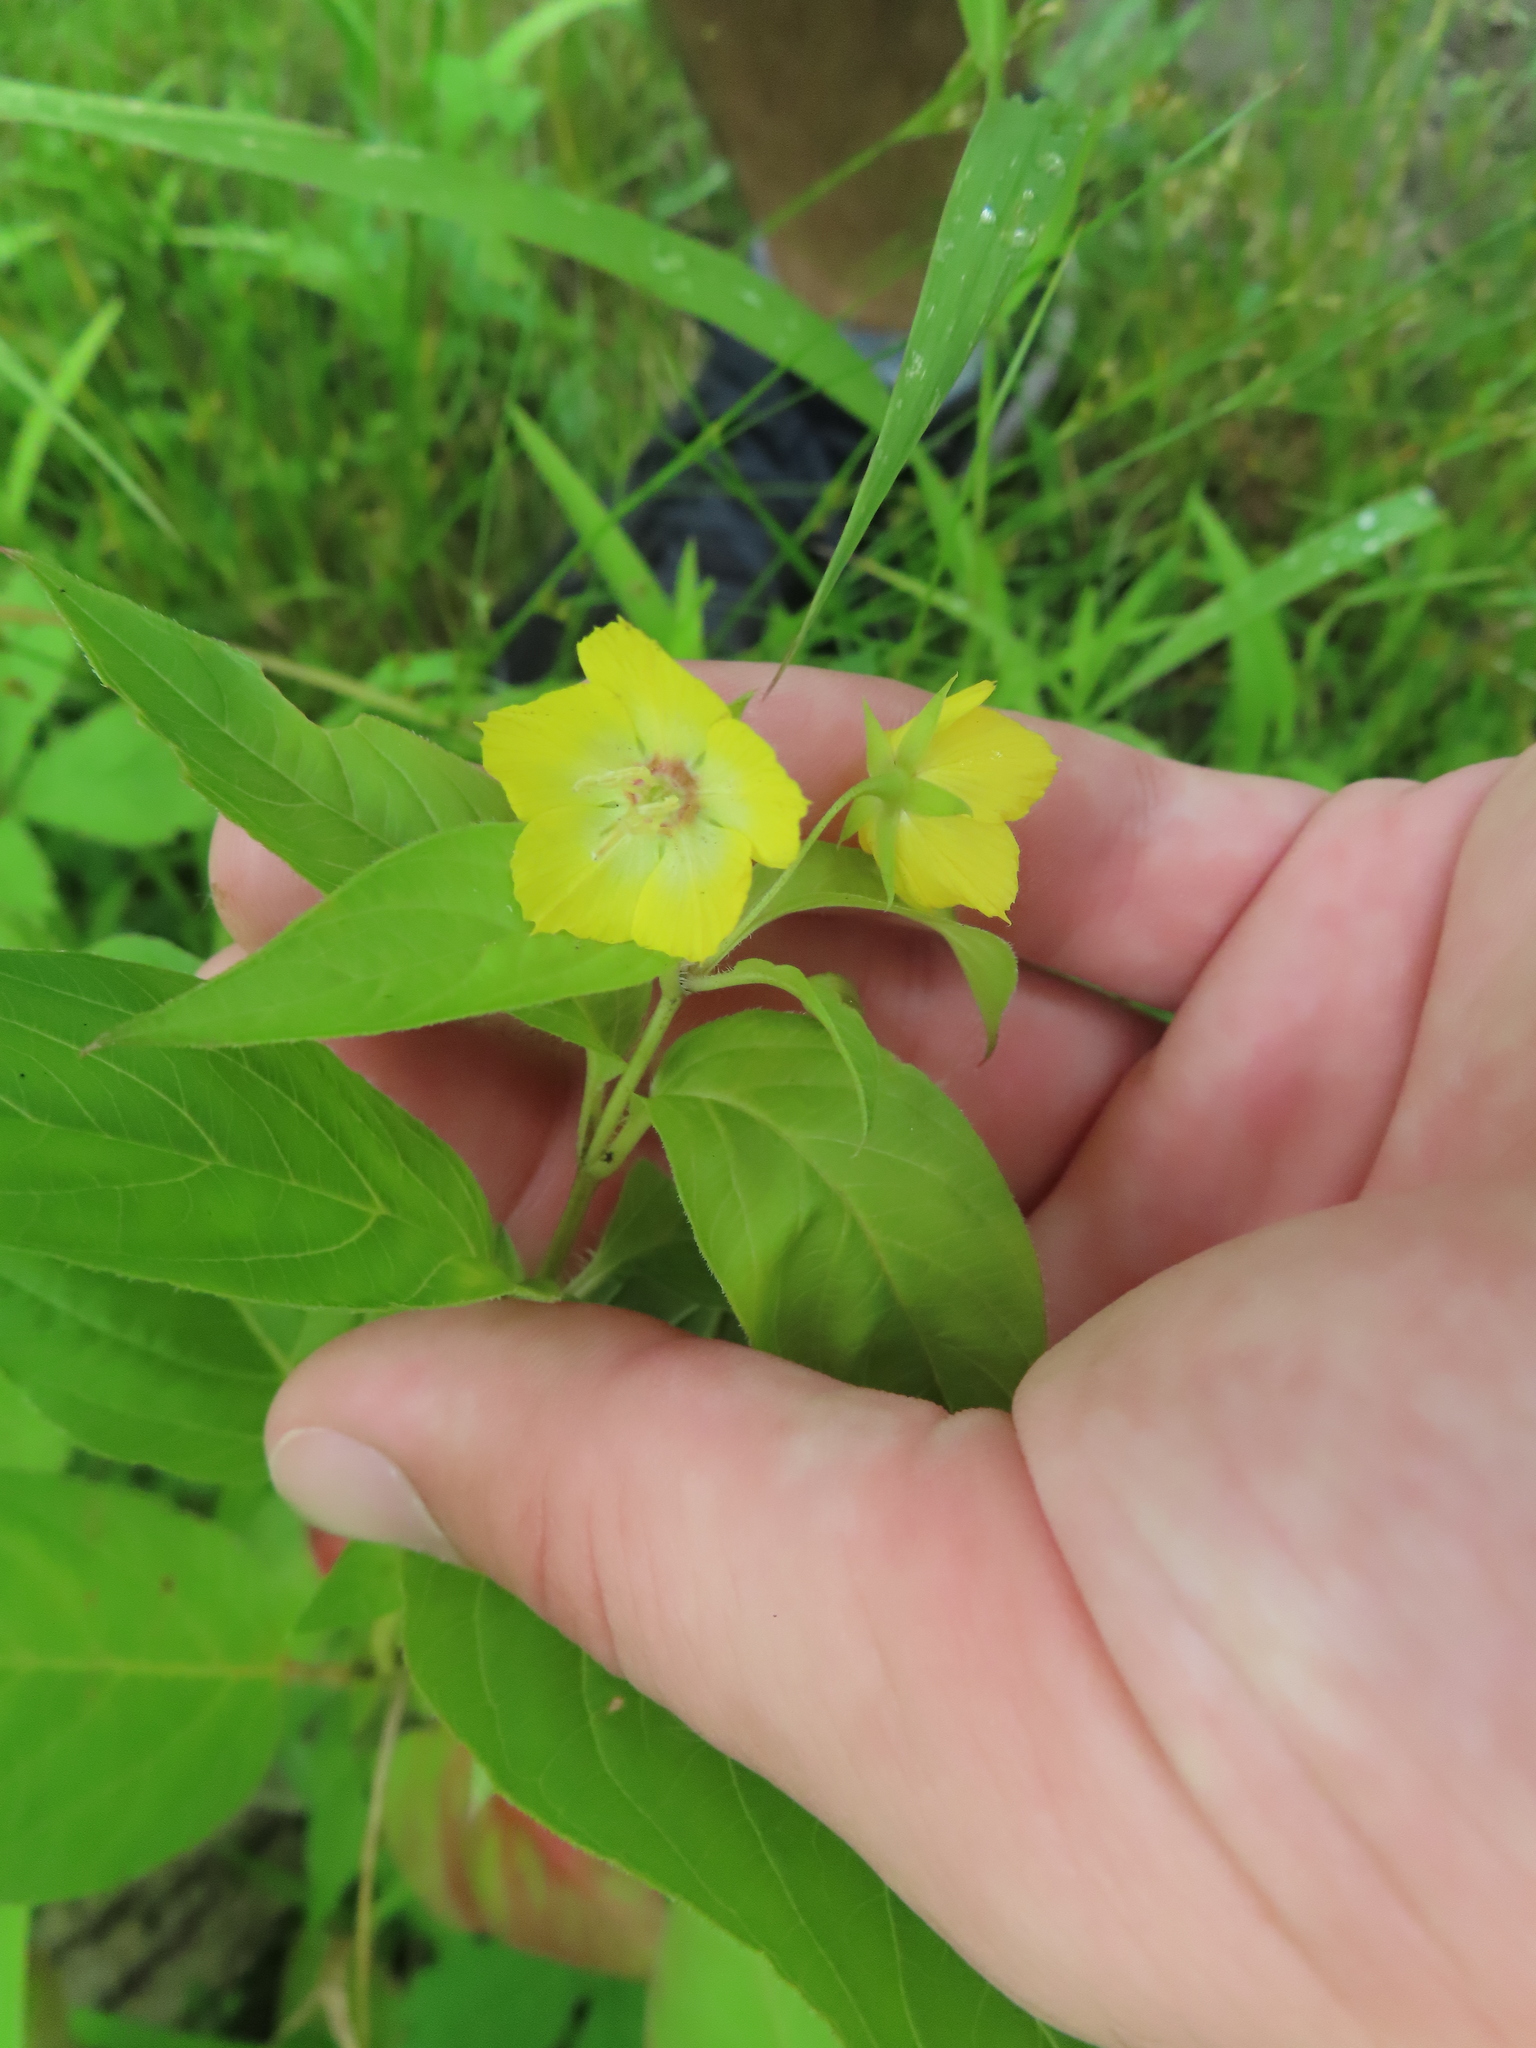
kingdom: Plantae
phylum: Tracheophyta
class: Magnoliopsida
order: Ericales
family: Primulaceae
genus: Lysimachia
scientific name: Lysimachia ciliata
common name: Fringed loosestrife
